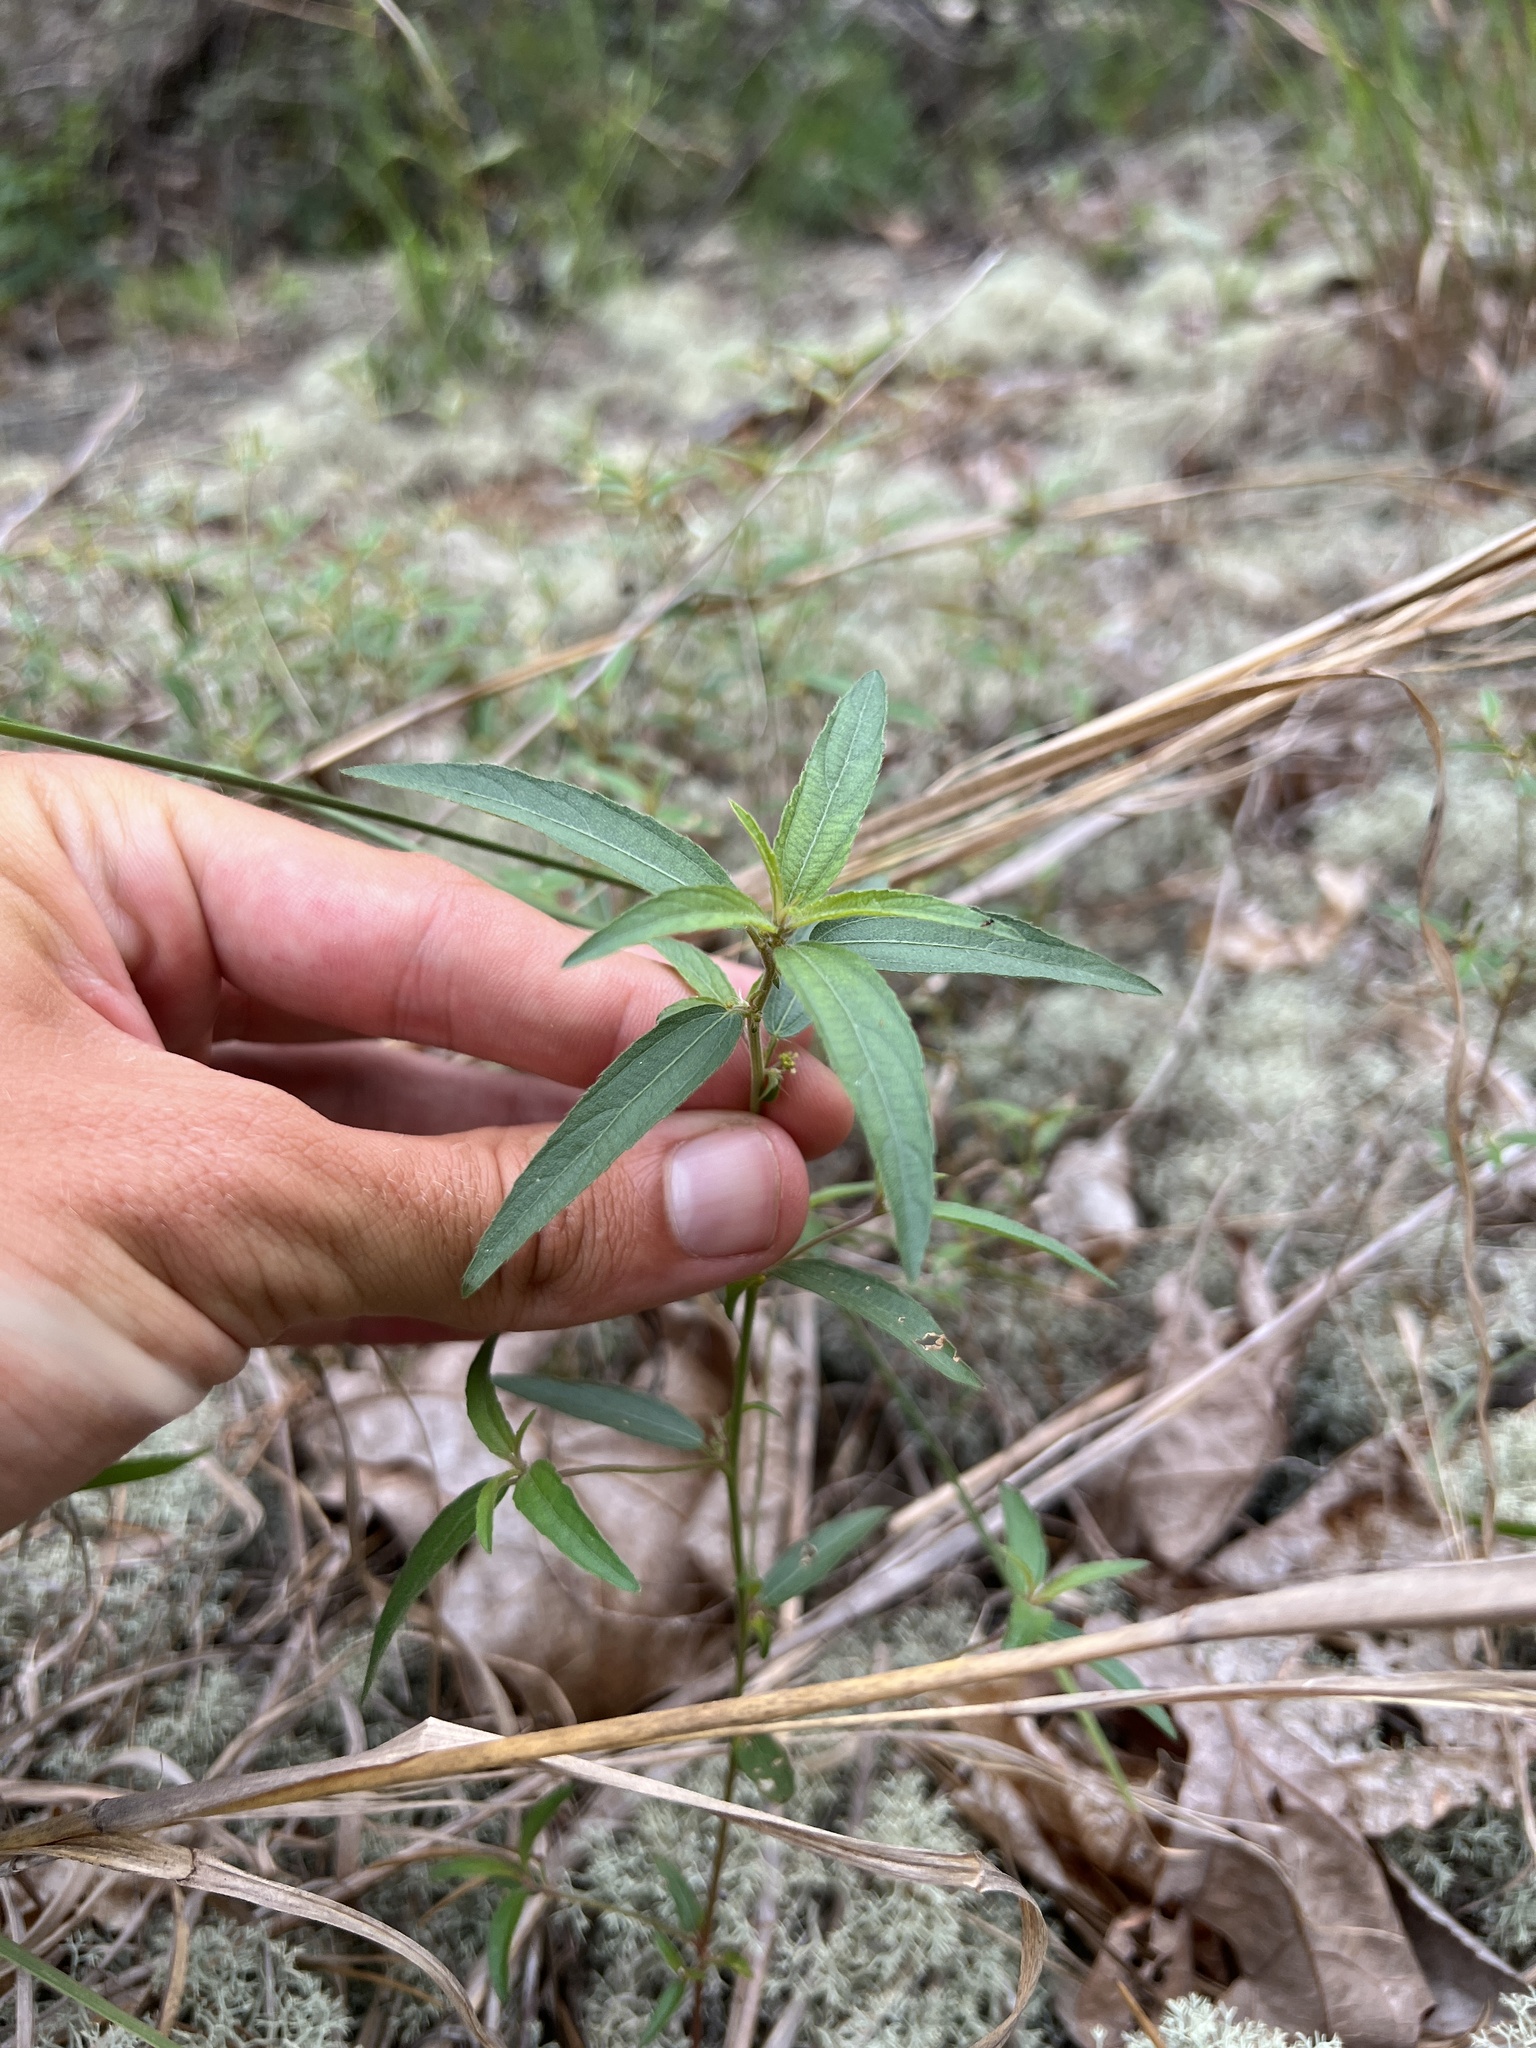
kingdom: Plantae
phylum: Tracheophyta
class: Magnoliopsida
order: Malpighiales
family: Euphorbiaceae
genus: Acalypha
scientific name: Acalypha monococca
